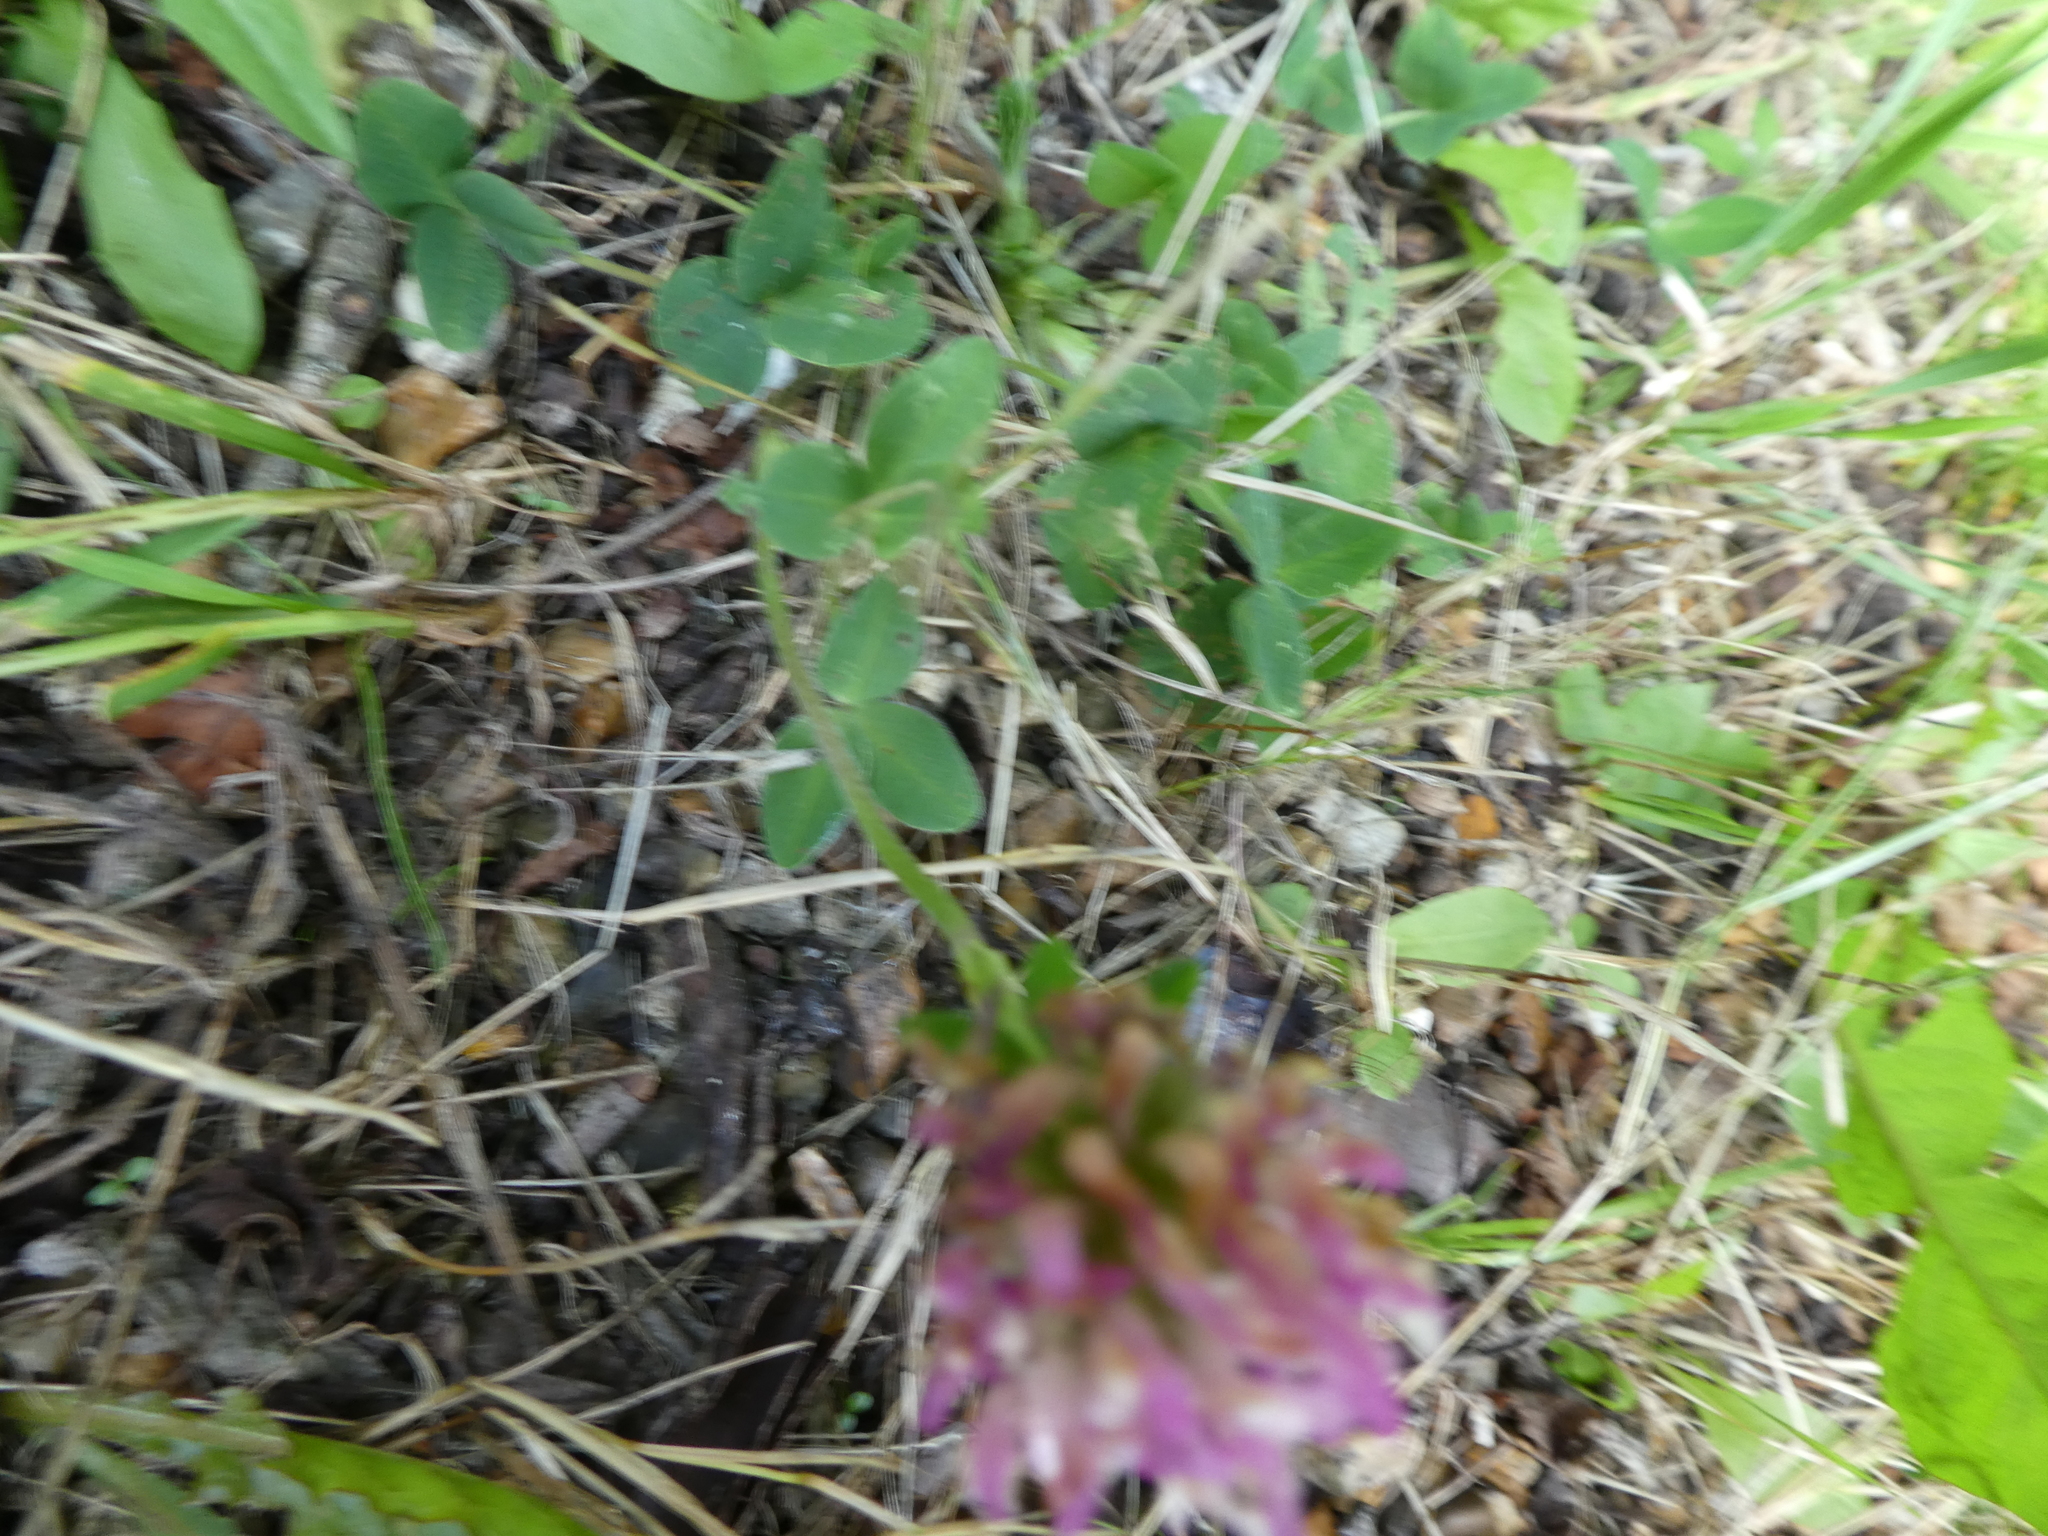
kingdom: Plantae
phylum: Tracheophyta
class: Magnoliopsida
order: Fabales
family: Fabaceae
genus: Trifolium
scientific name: Trifolium pratense
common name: Red clover
